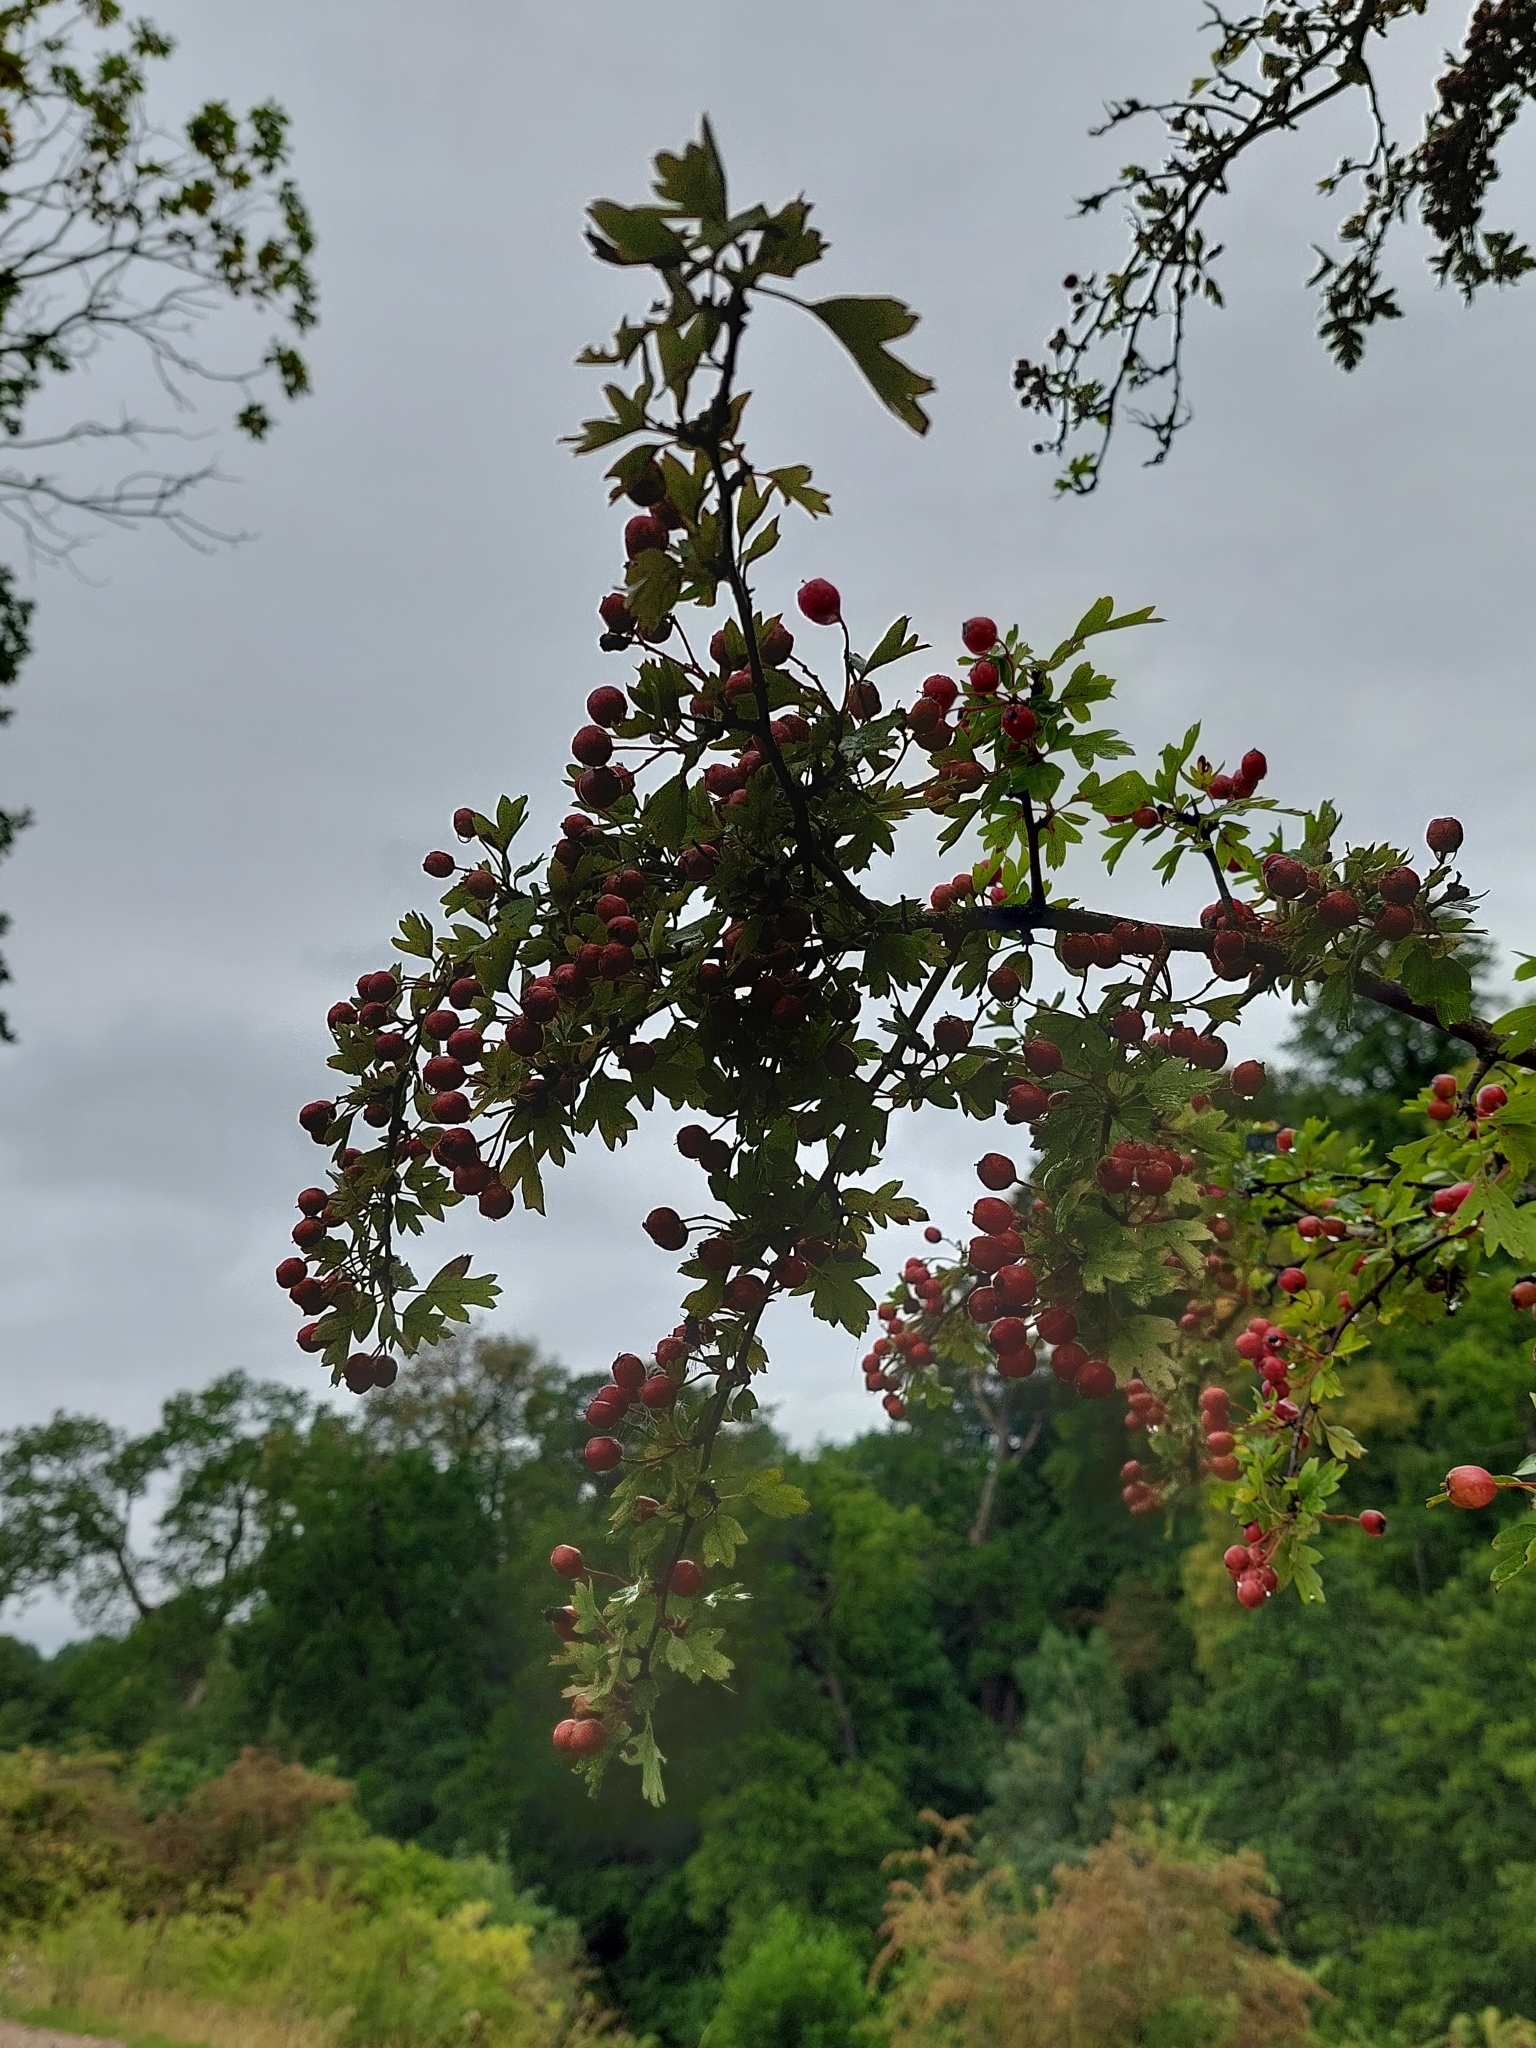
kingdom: Plantae
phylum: Tracheophyta
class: Magnoliopsida
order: Rosales
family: Rosaceae
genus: Crataegus
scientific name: Crataegus monogyna
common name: Hawthorn
